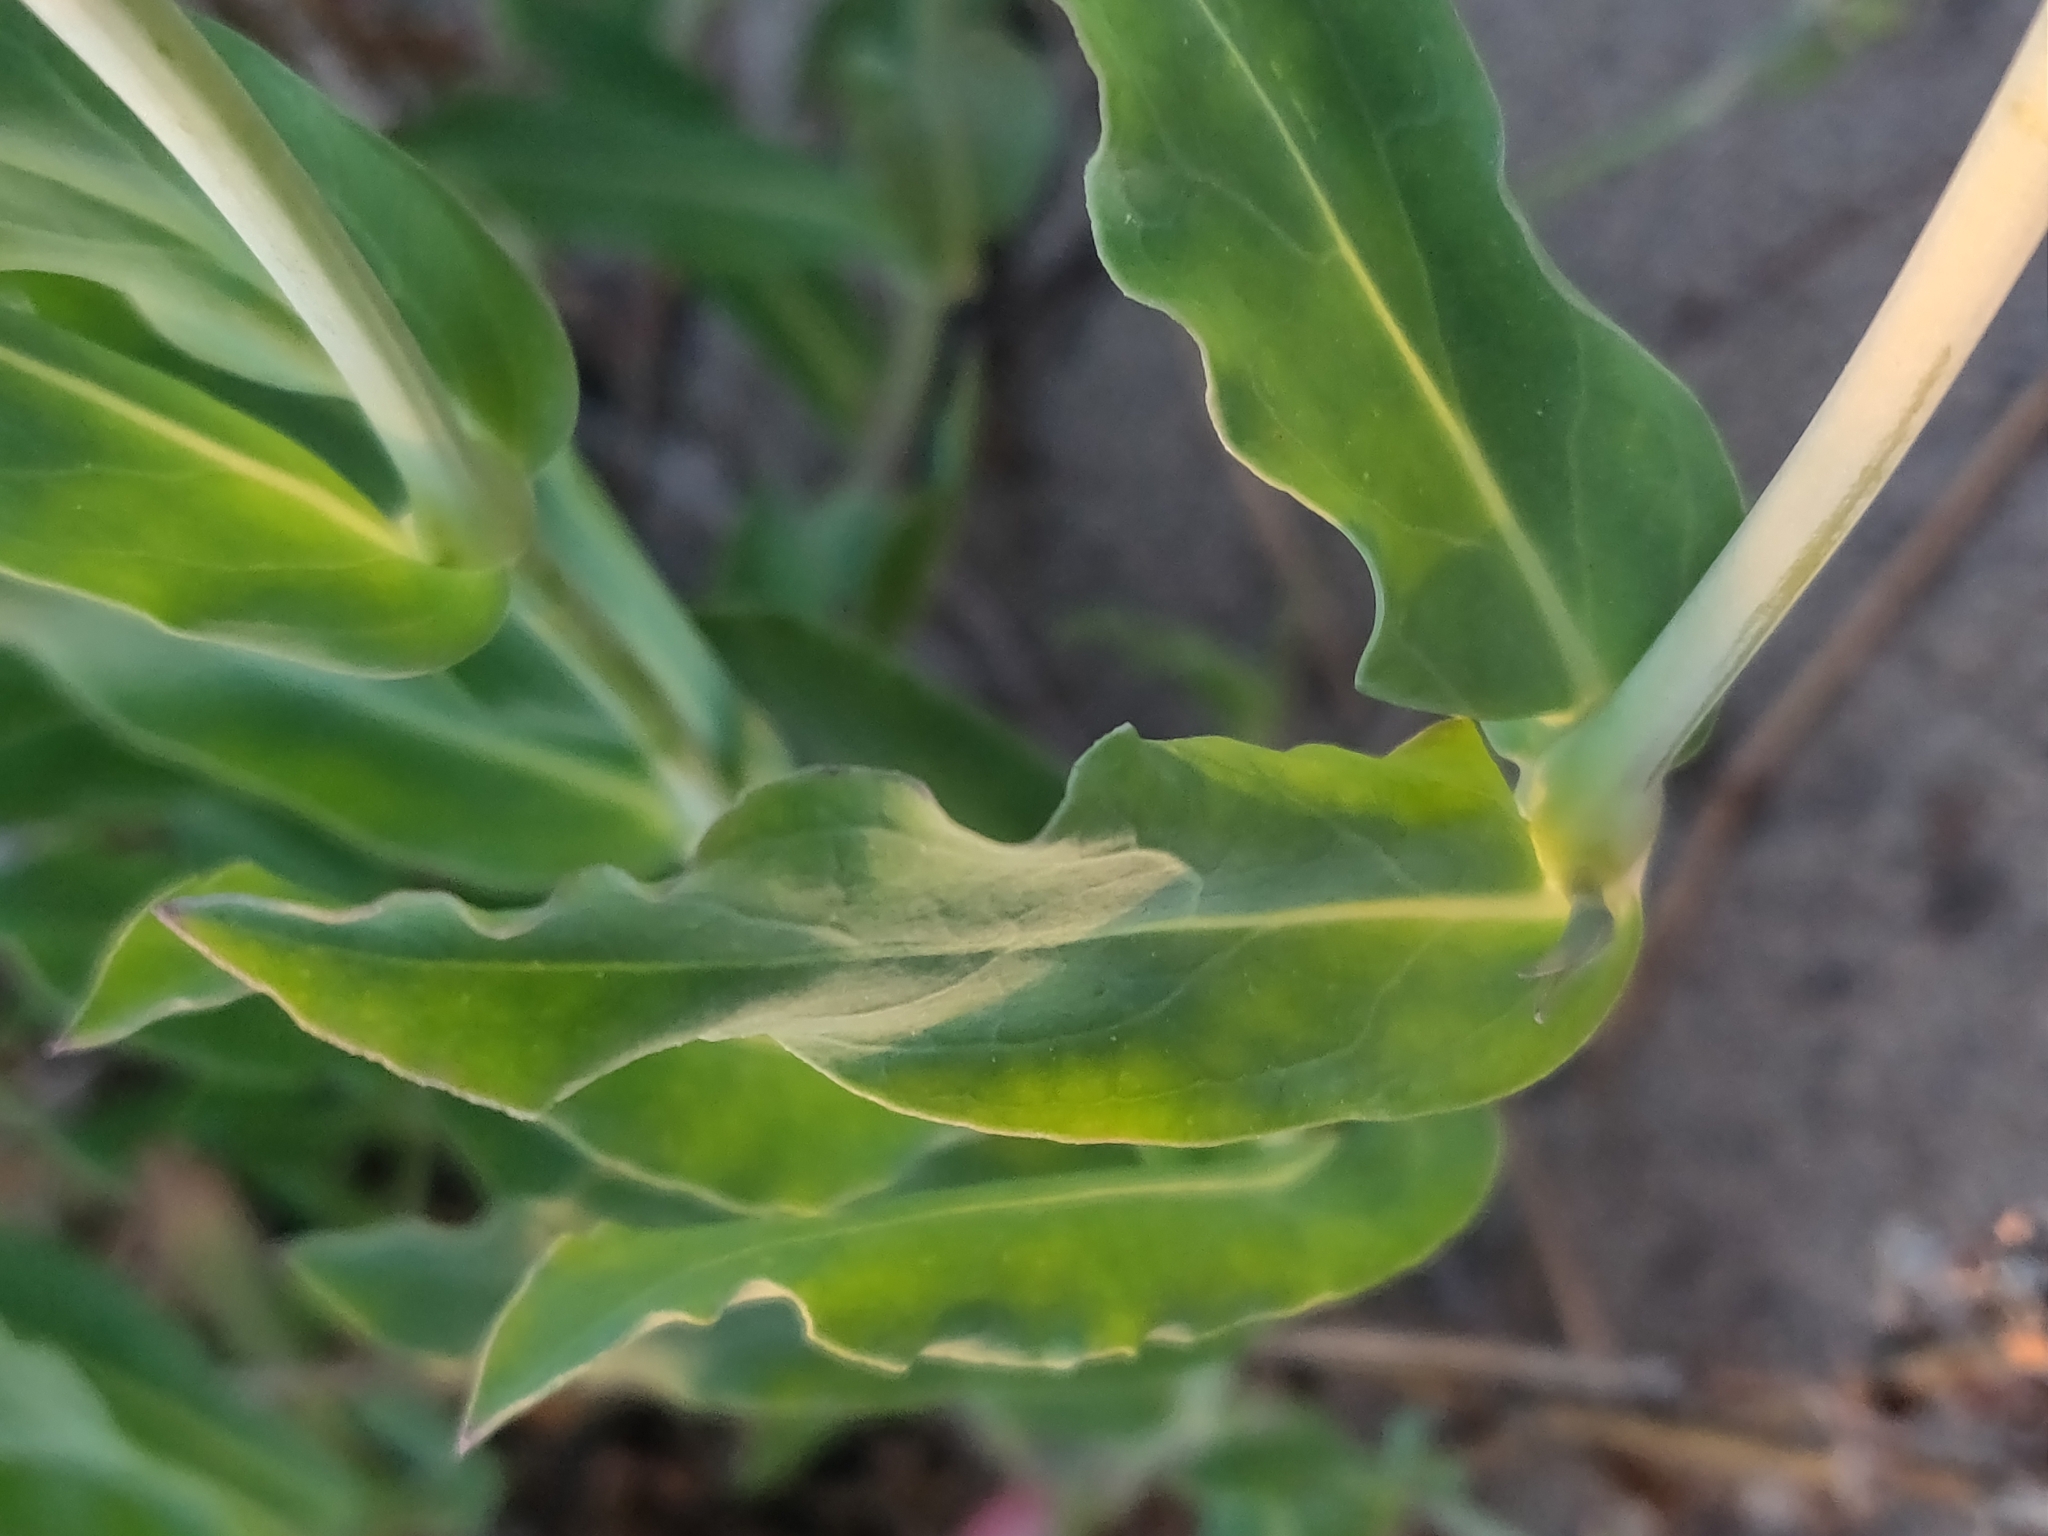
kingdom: Plantae
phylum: Tracheophyta
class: Magnoliopsida
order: Caryophyllales
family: Caryophyllaceae
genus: Silene
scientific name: Silene vulgaris
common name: Bladder campion
